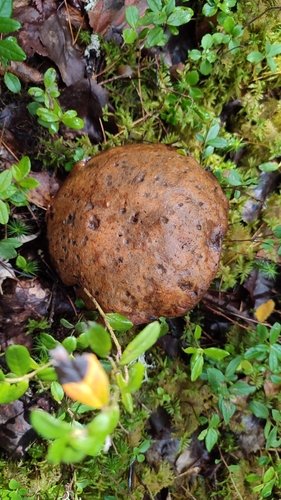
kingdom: Fungi
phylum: Basidiomycota
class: Agaricomycetes
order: Boletales
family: Boletaceae
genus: Leccinum
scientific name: Leccinum
